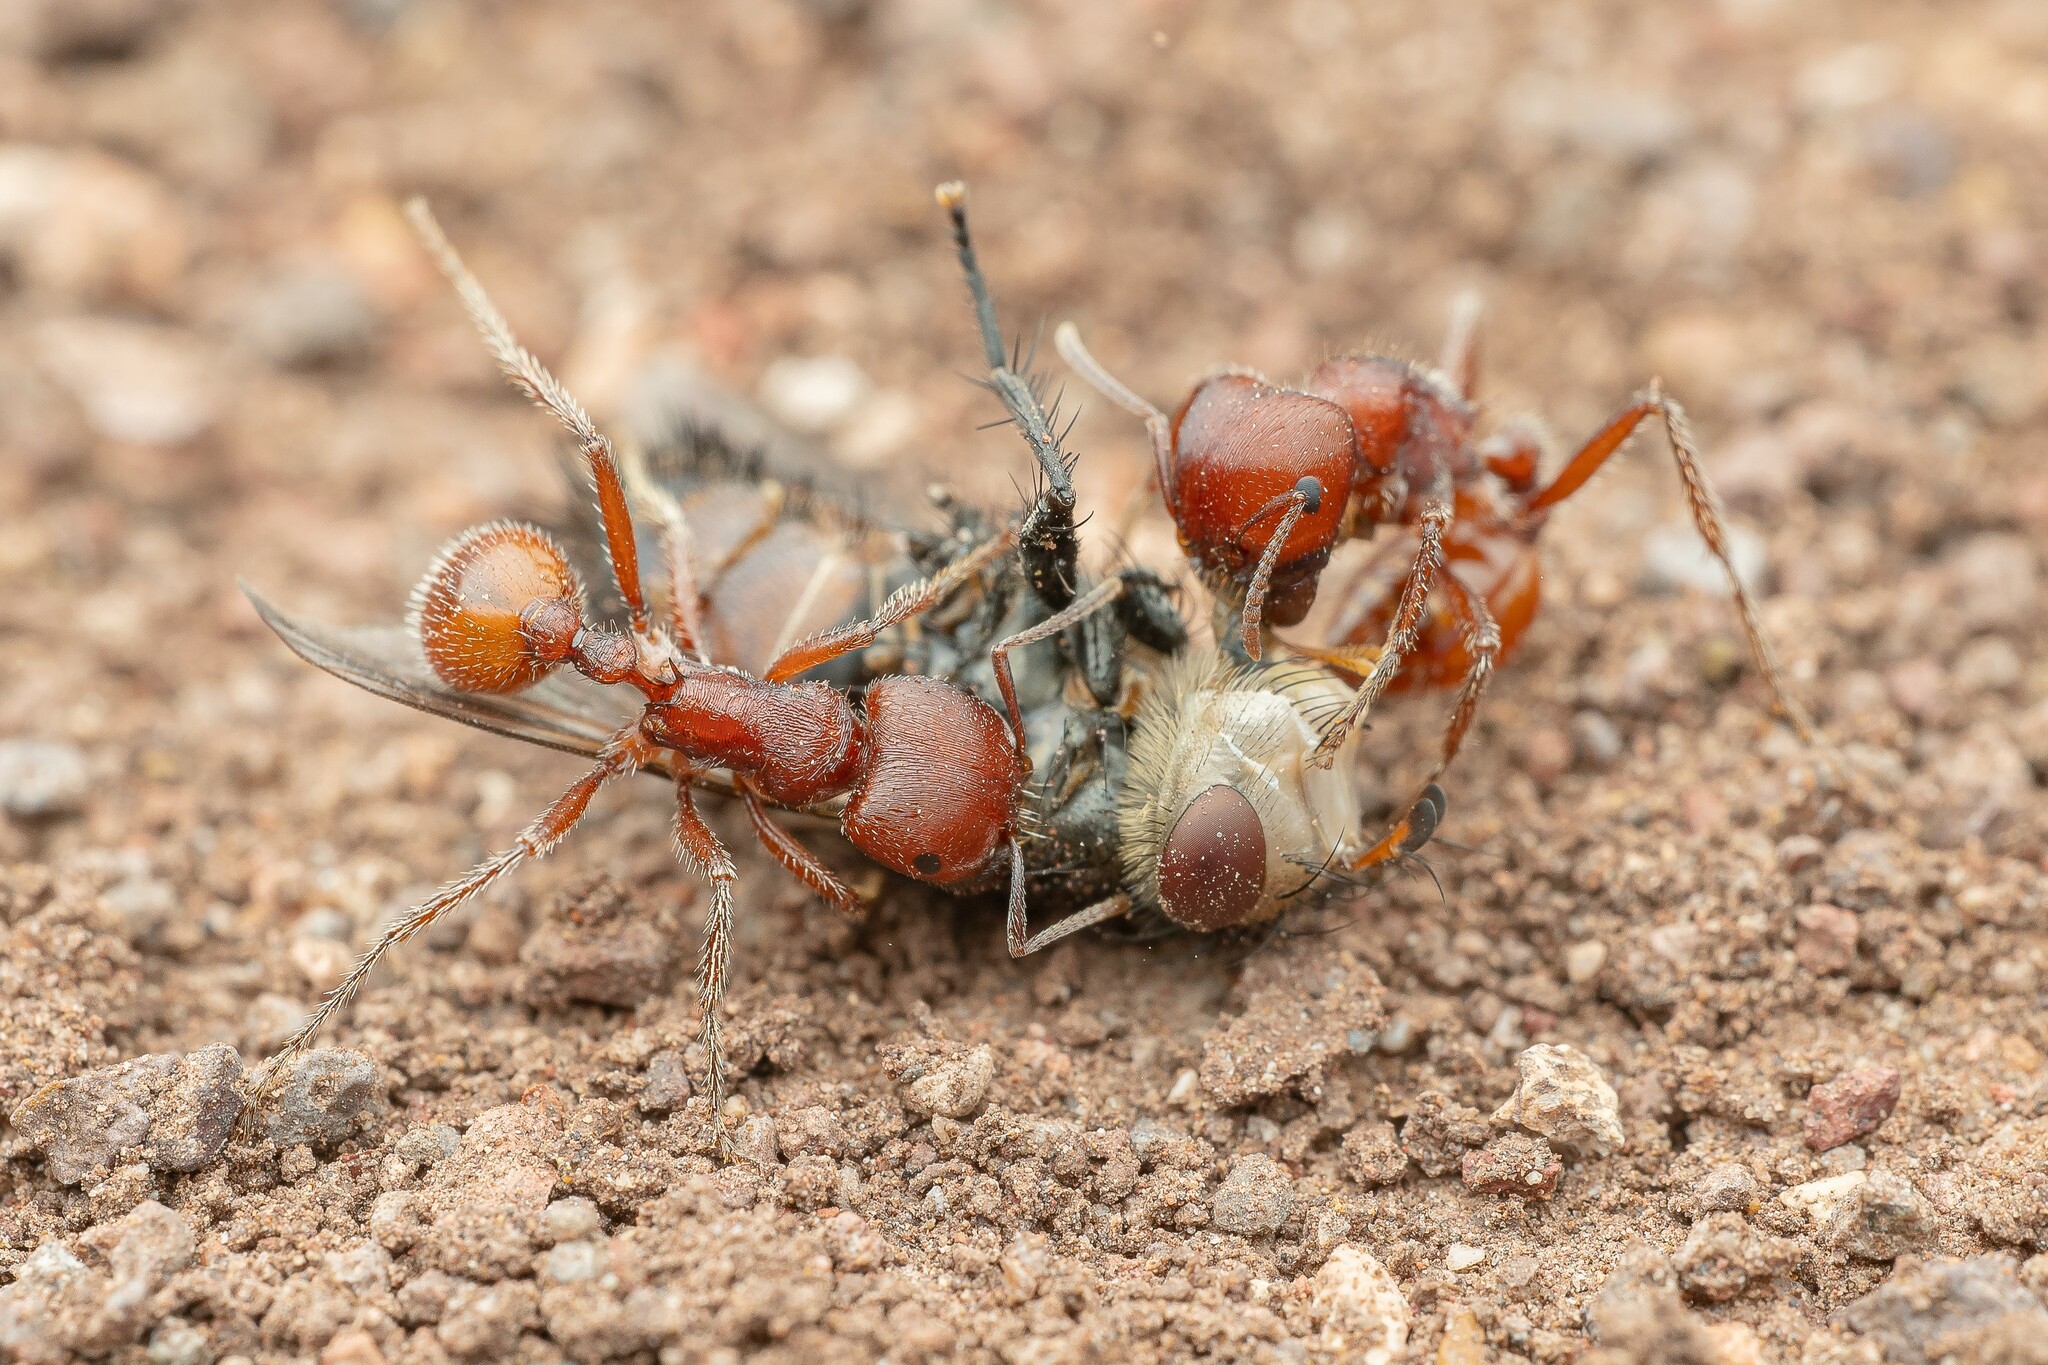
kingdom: Animalia
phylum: Arthropoda
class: Insecta
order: Hymenoptera
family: Formicidae
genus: Pogonomyrmex
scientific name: Pogonomyrmex barbatus
